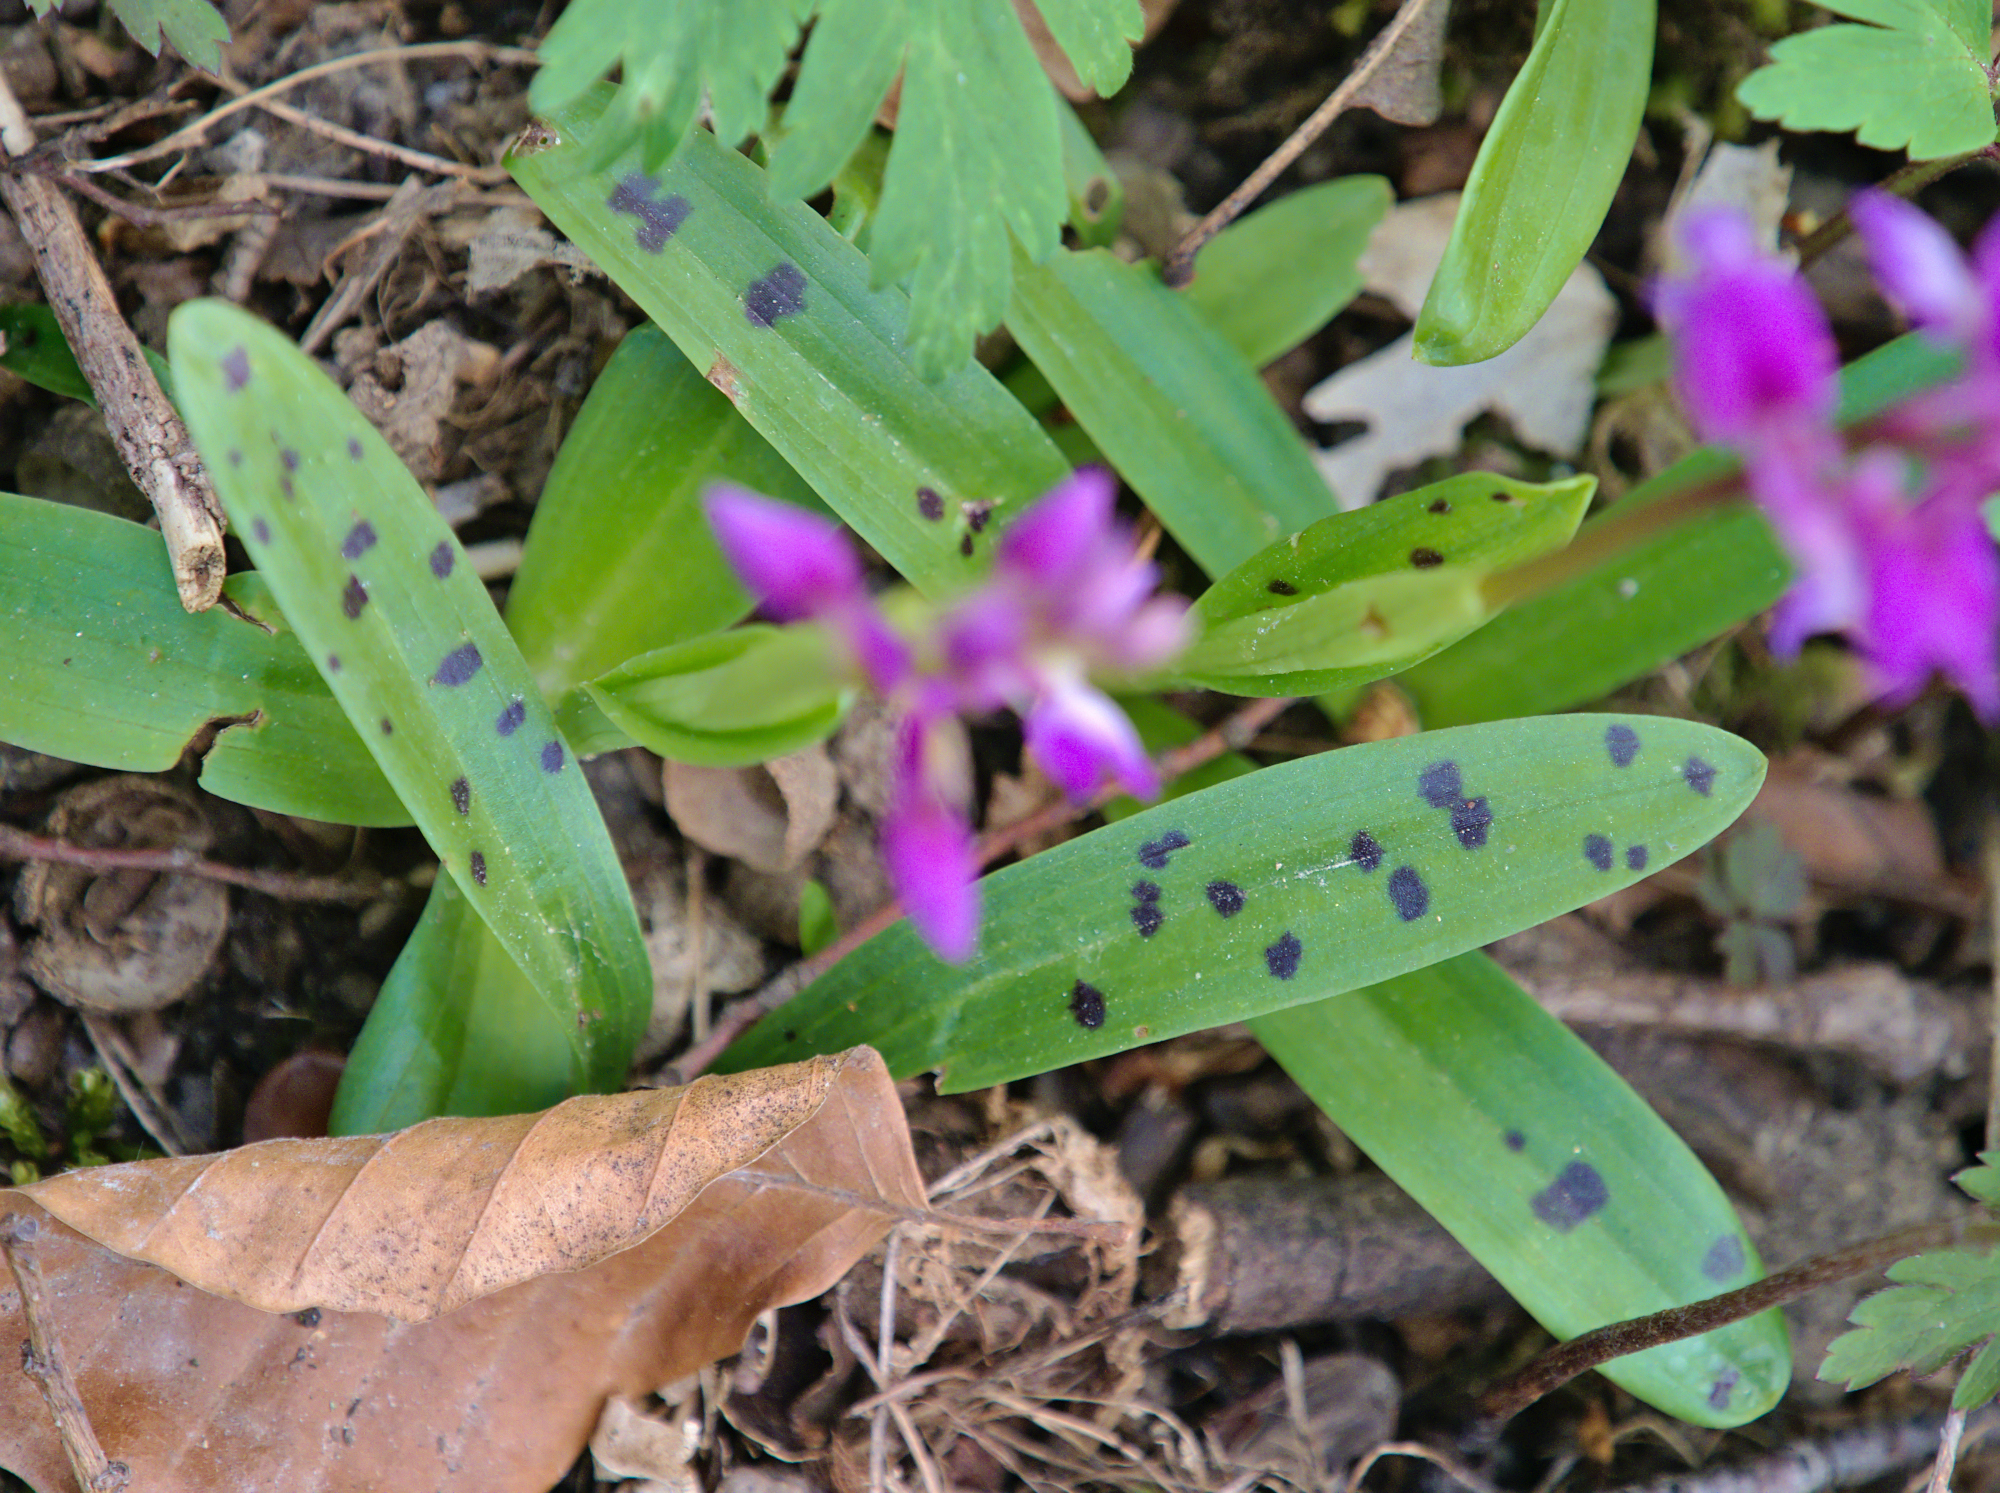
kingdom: Plantae
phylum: Tracheophyta
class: Liliopsida
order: Asparagales
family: Orchidaceae
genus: Orchis
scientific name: Orchis mascula
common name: Early-purple orchid
